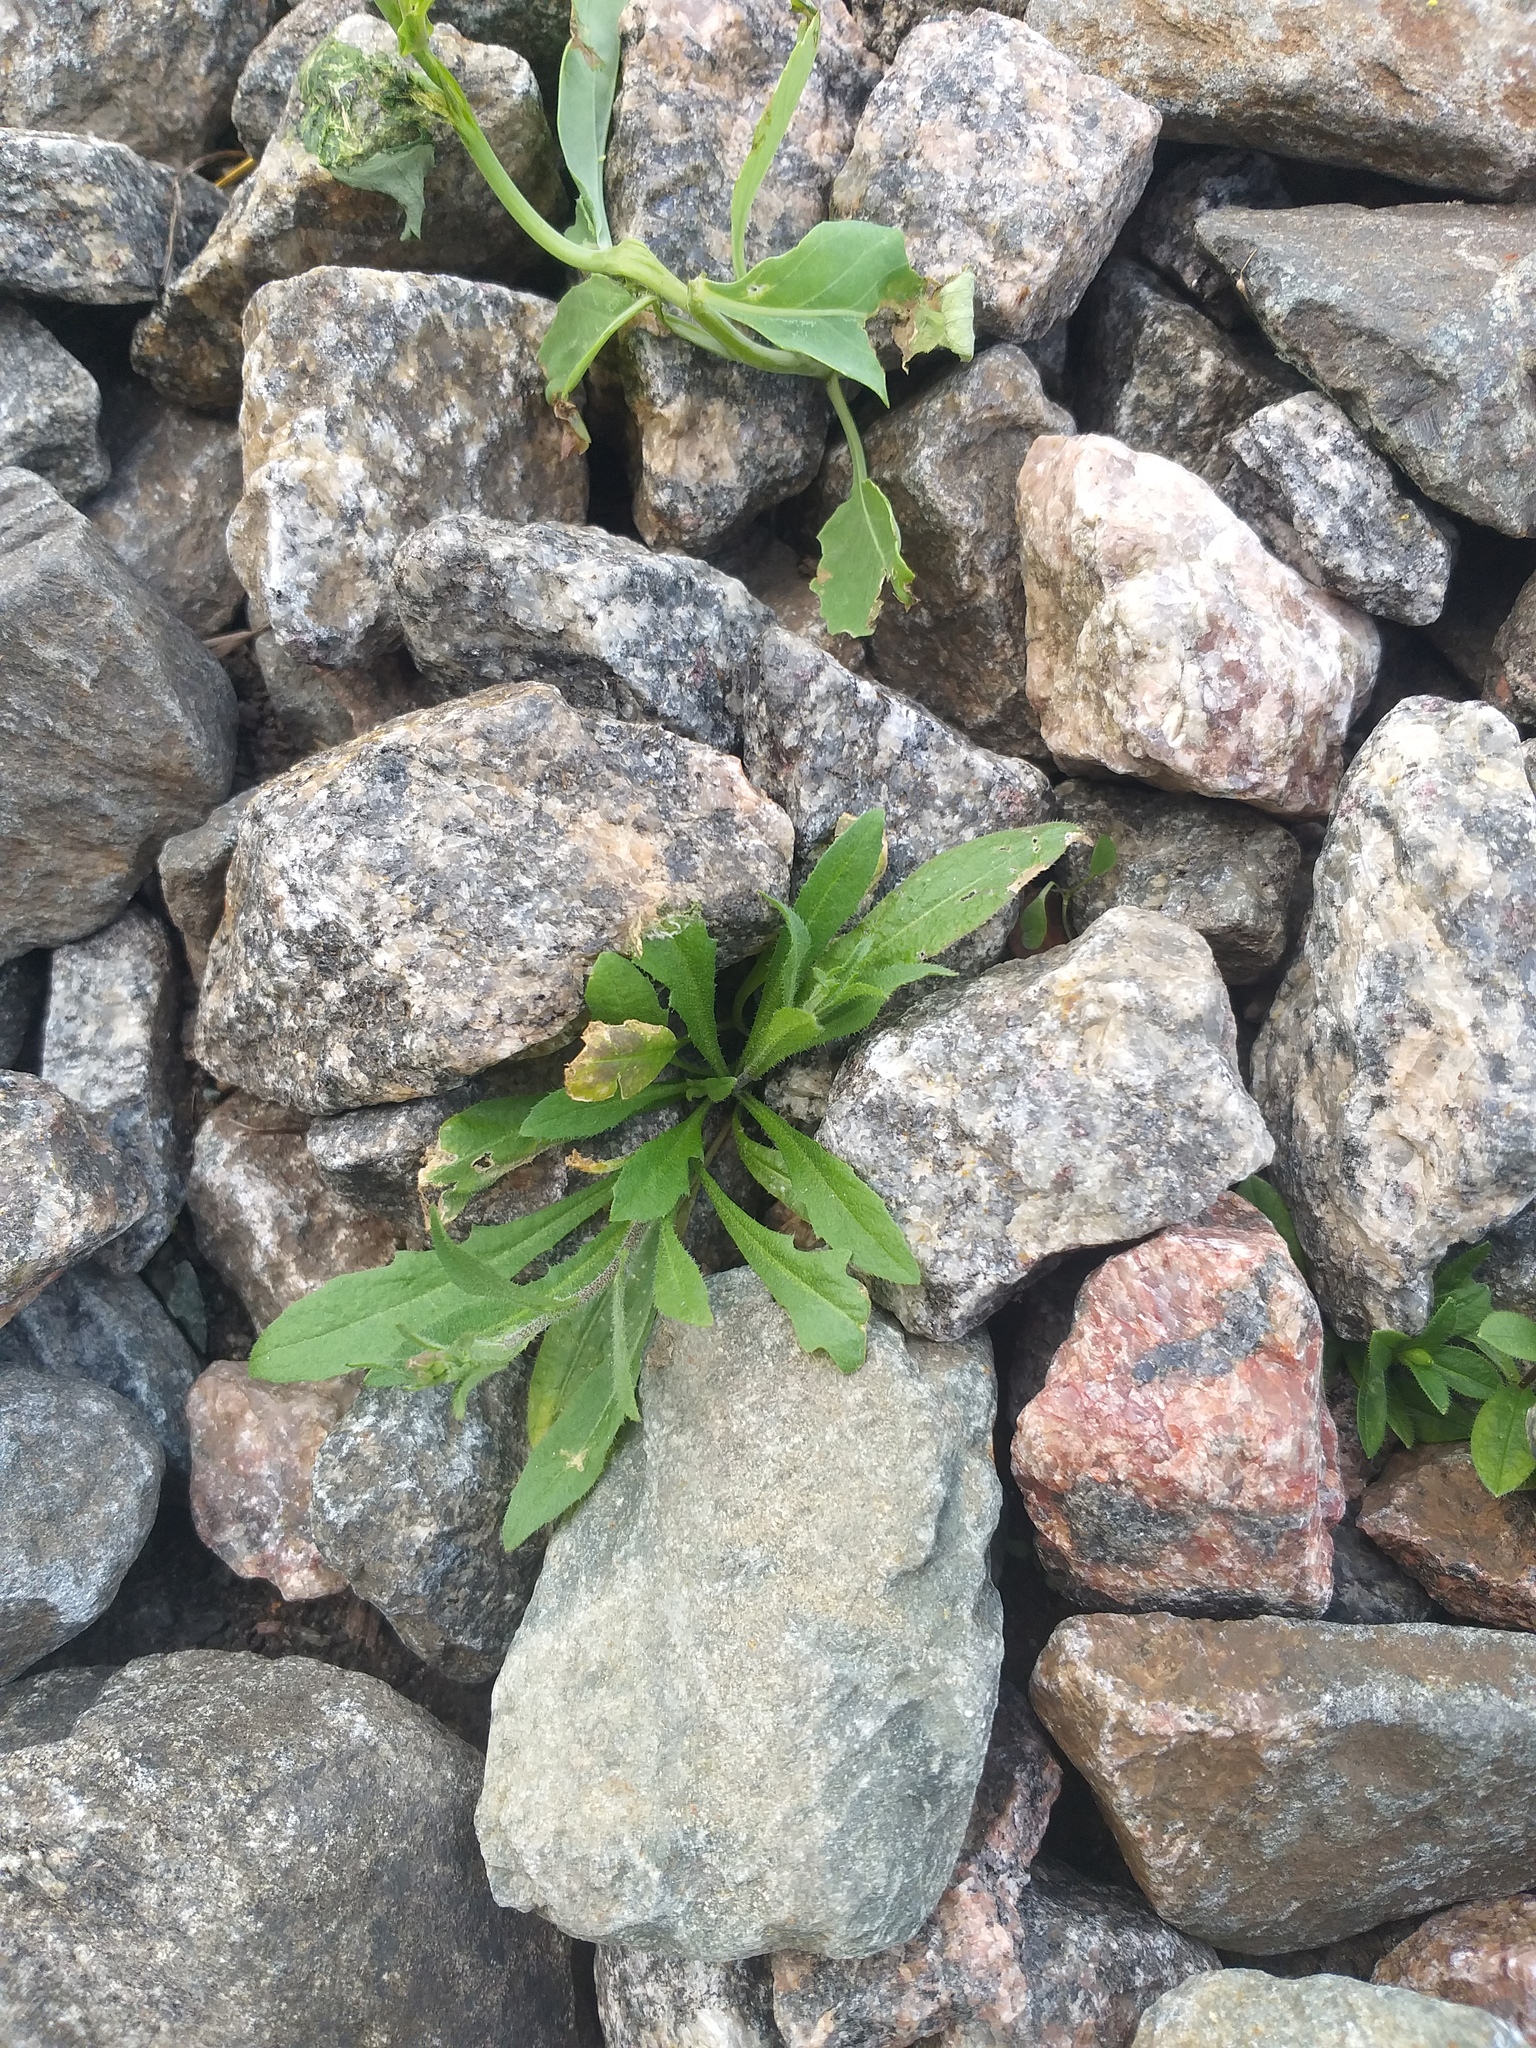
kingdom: Plantae
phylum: Tracheophyta
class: Magnoliopsida
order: Brassicales
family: Brassicaceae
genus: Capsella
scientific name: Capsella bursa-pastoris
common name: Shepherd's purse
